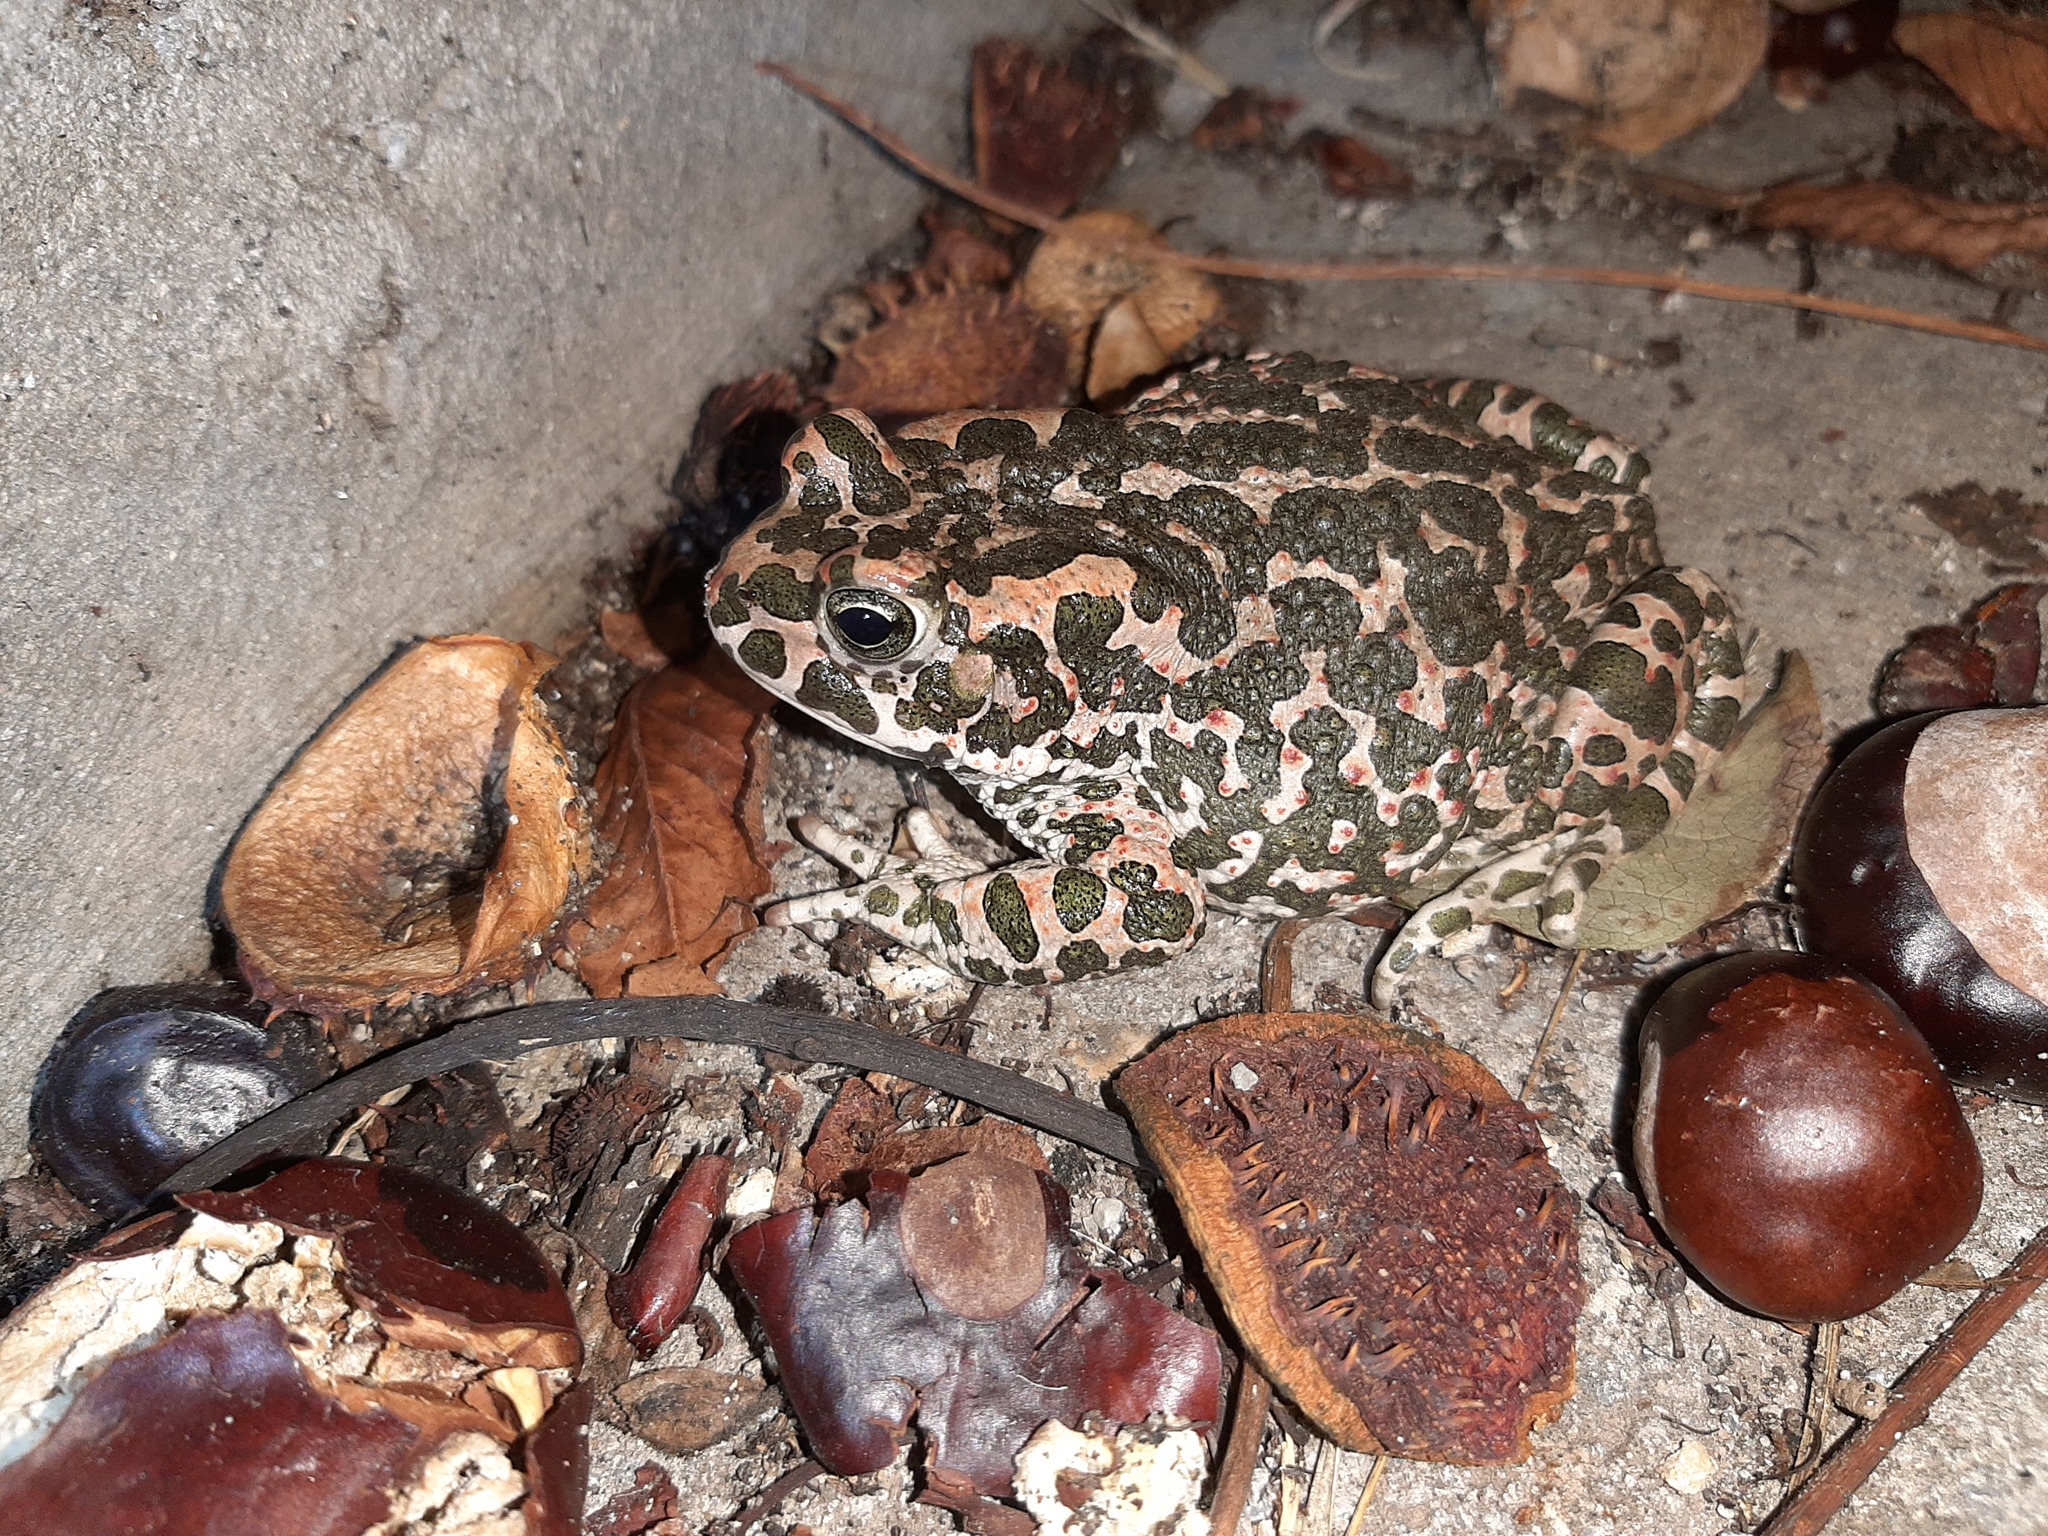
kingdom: Animalia
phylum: Chordata
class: Amphibia
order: Anura
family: Bufonidae
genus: Bufotes
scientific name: Bufotes viridis
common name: European green toad
